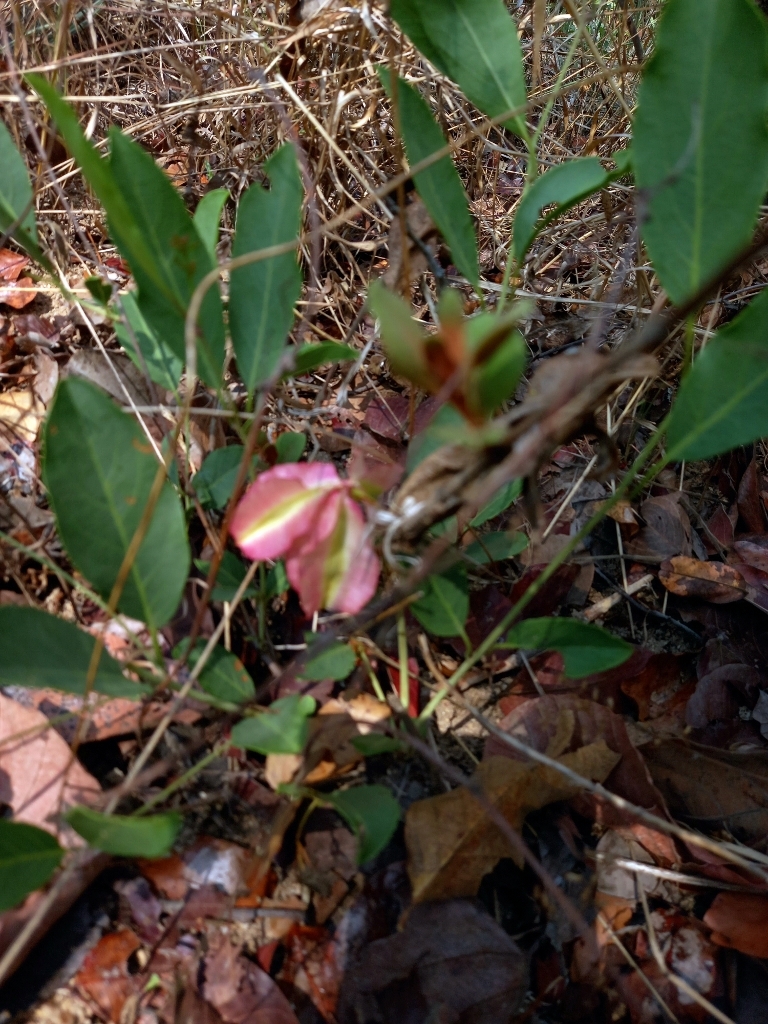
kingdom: Plantae
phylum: Tracheophyta
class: Magnoliopsida
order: Myrtales
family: Combretaceae
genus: Combretum
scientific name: Combretum oatesii
